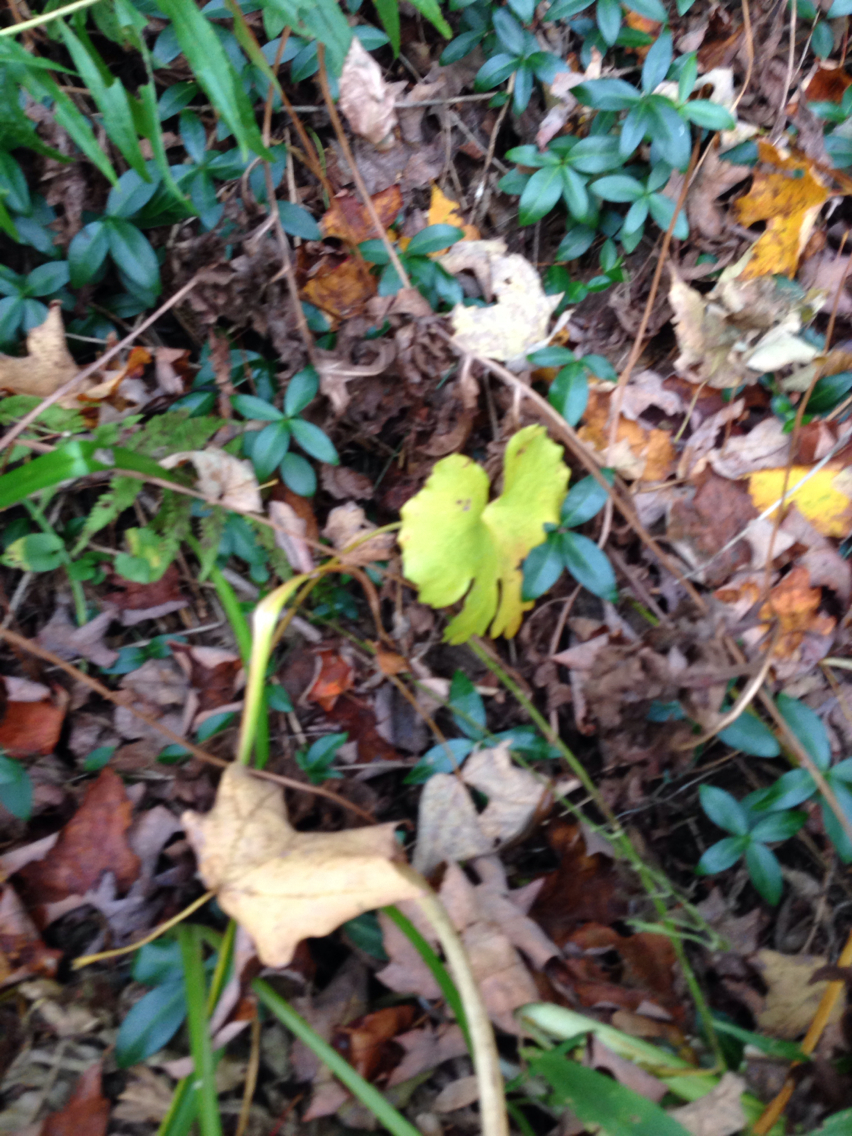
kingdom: Plantae
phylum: Tracheophyta
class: Magnoliopsida
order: Ranunculales
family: Papaveraceae
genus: Sanguinaria
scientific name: Sanguinaria canadensis
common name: Bloodroot
